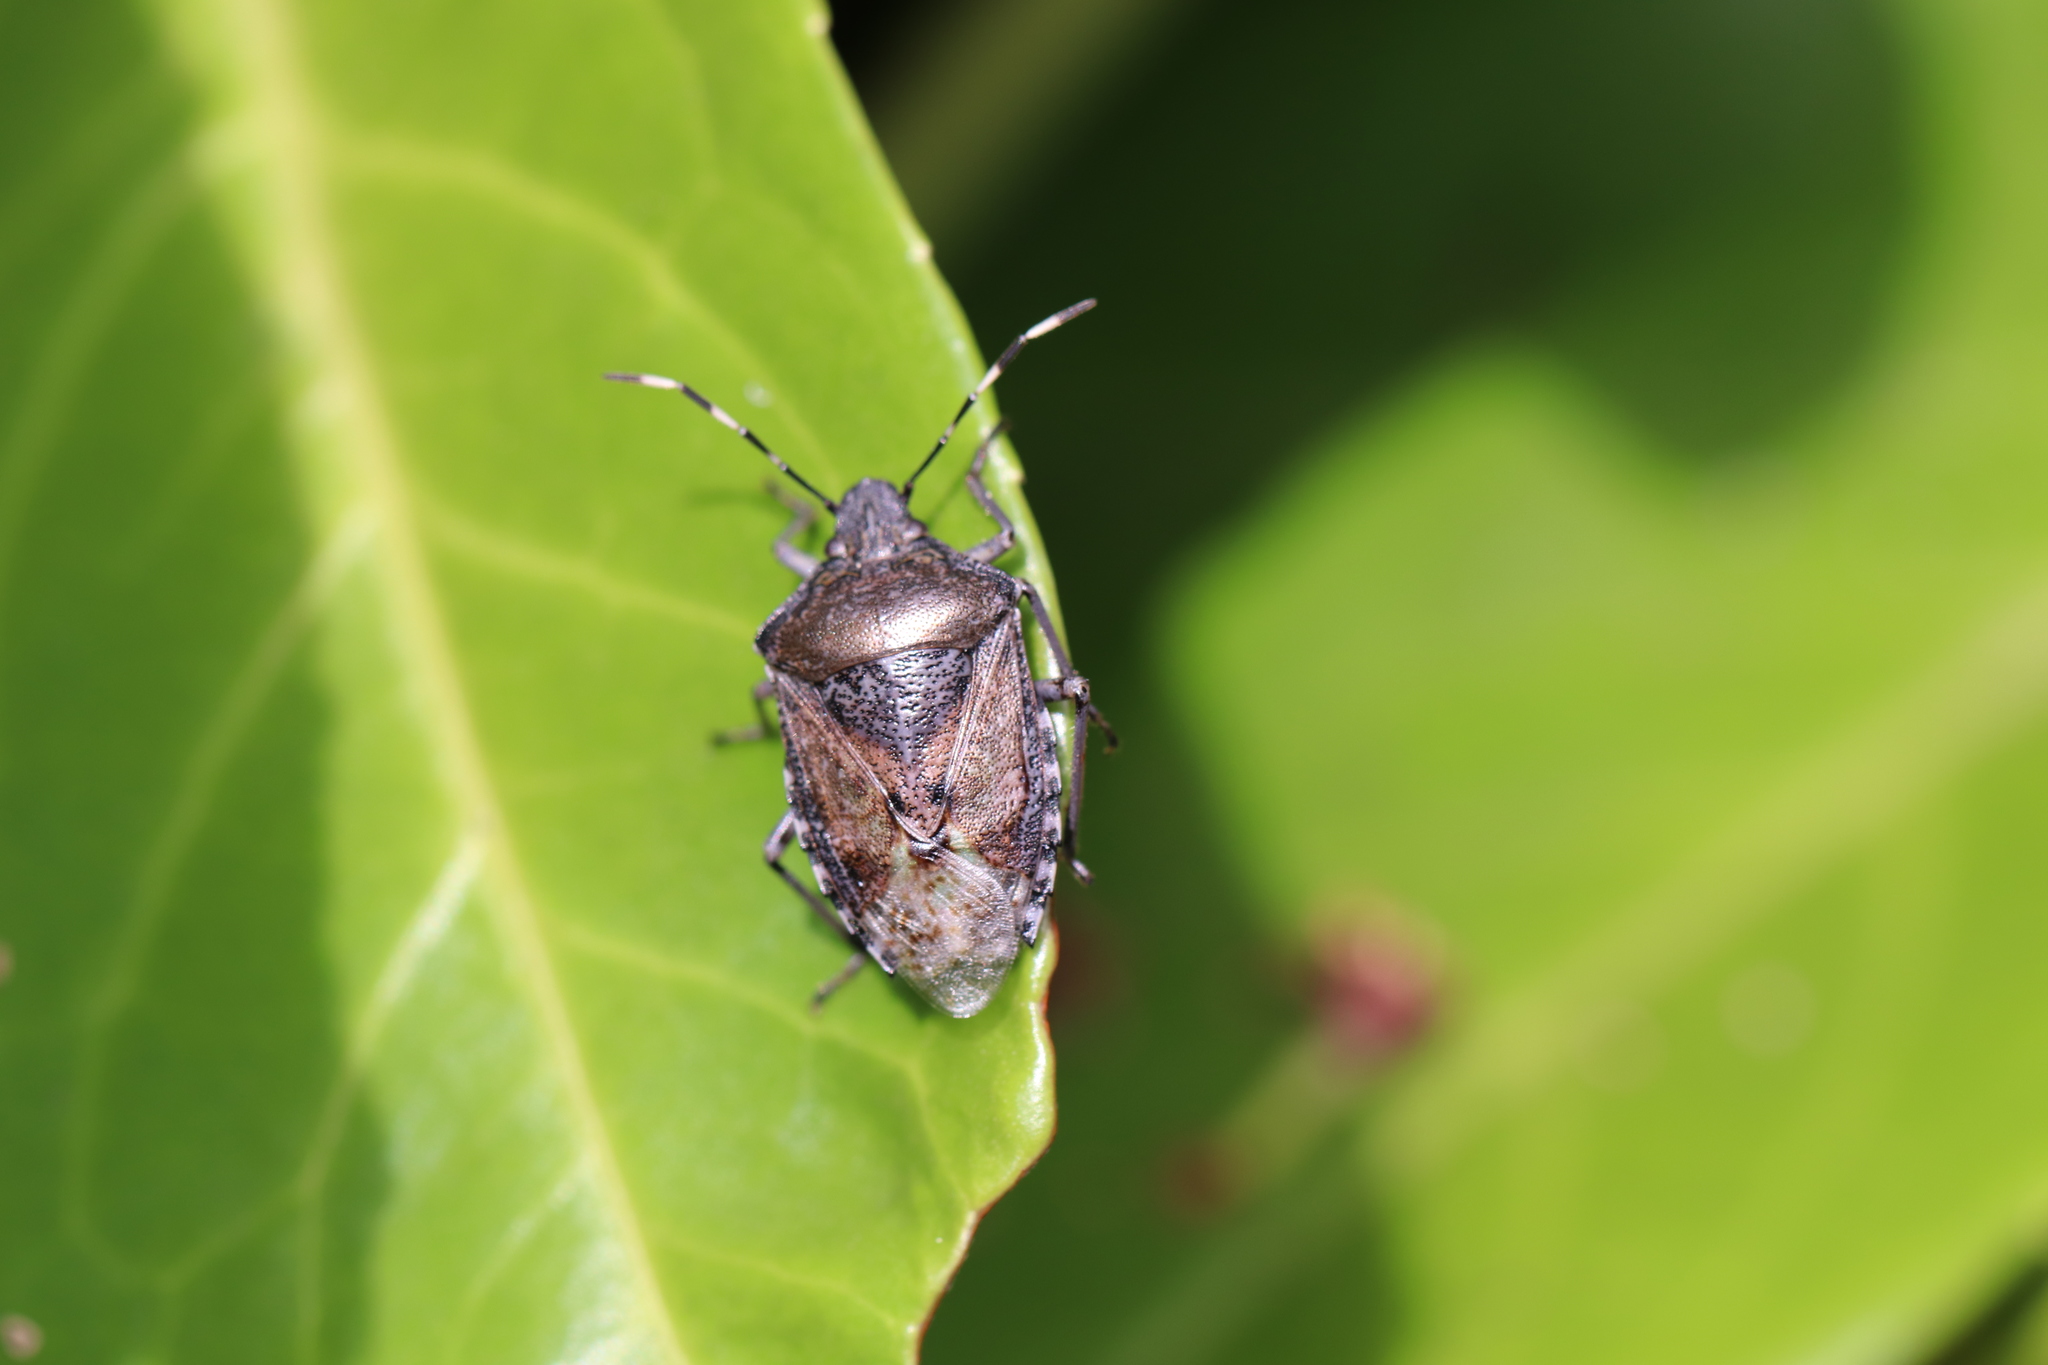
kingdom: Animalia
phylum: Arthropoda
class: Insecta
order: Hemiptera
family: Pentatomidae
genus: Rhaphigaster
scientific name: Rhaphigaster nebulosa
